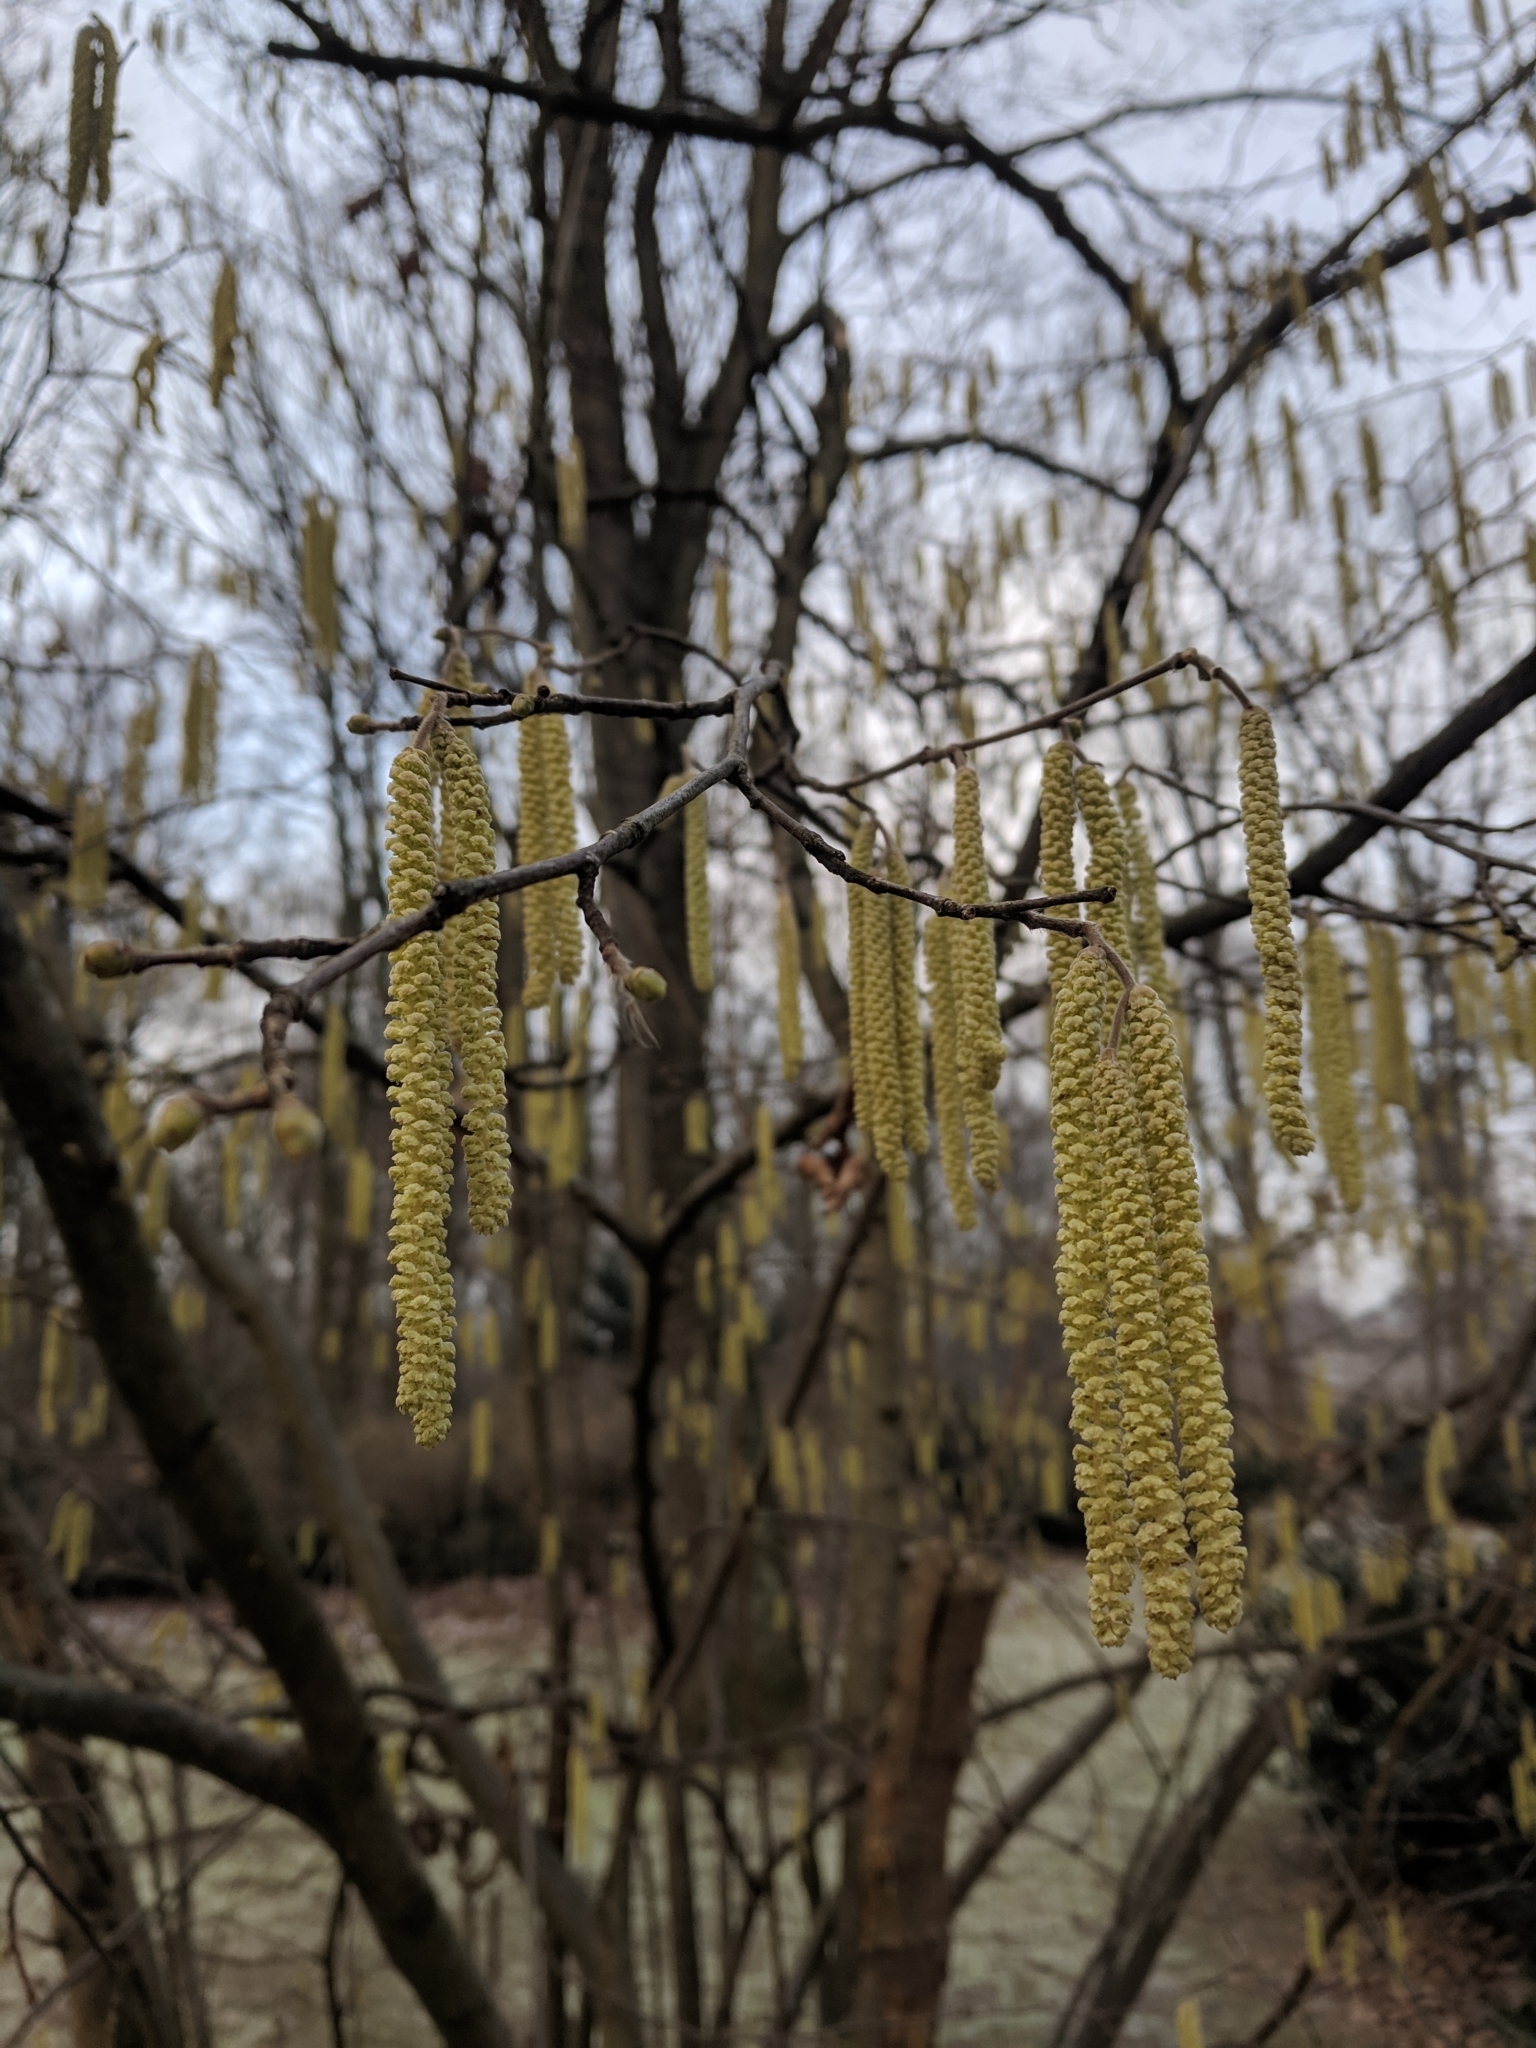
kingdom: Plantae
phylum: Tracheophyta
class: Magnoliopsida
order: Fagales
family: Betulaceae
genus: Corylus
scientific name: Corylus avellana
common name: European hazel
